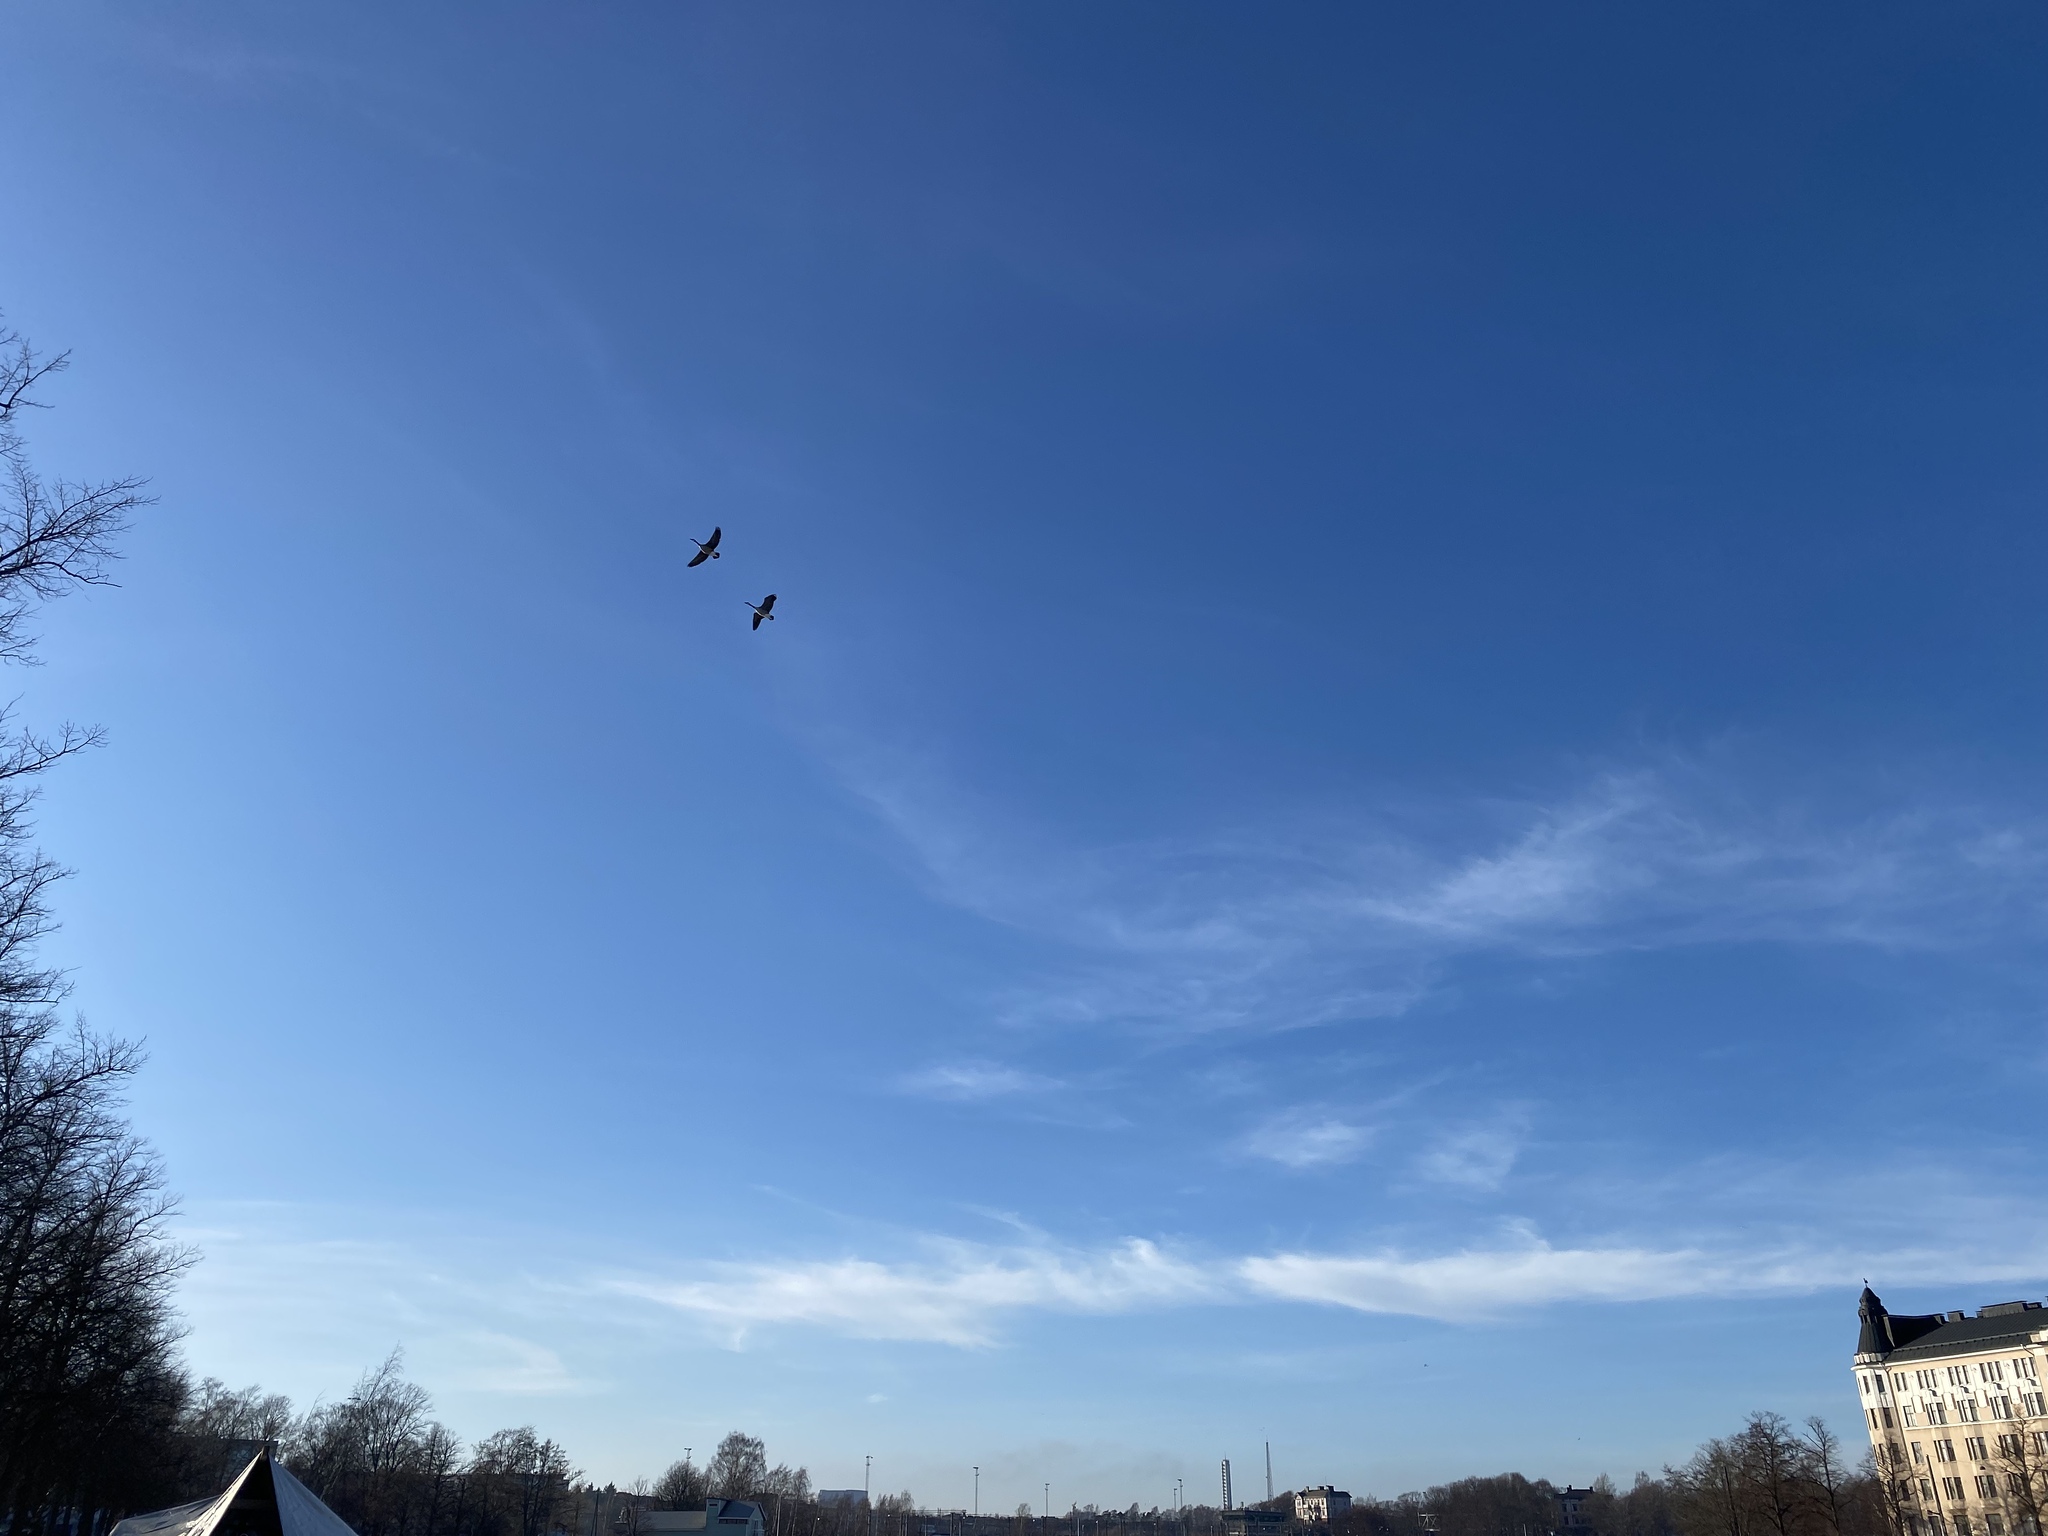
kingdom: Animalia
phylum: Chordata
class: Aves
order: Anseriformes
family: Anatidae
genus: Branta
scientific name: Branta canadensis
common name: Canada goose
